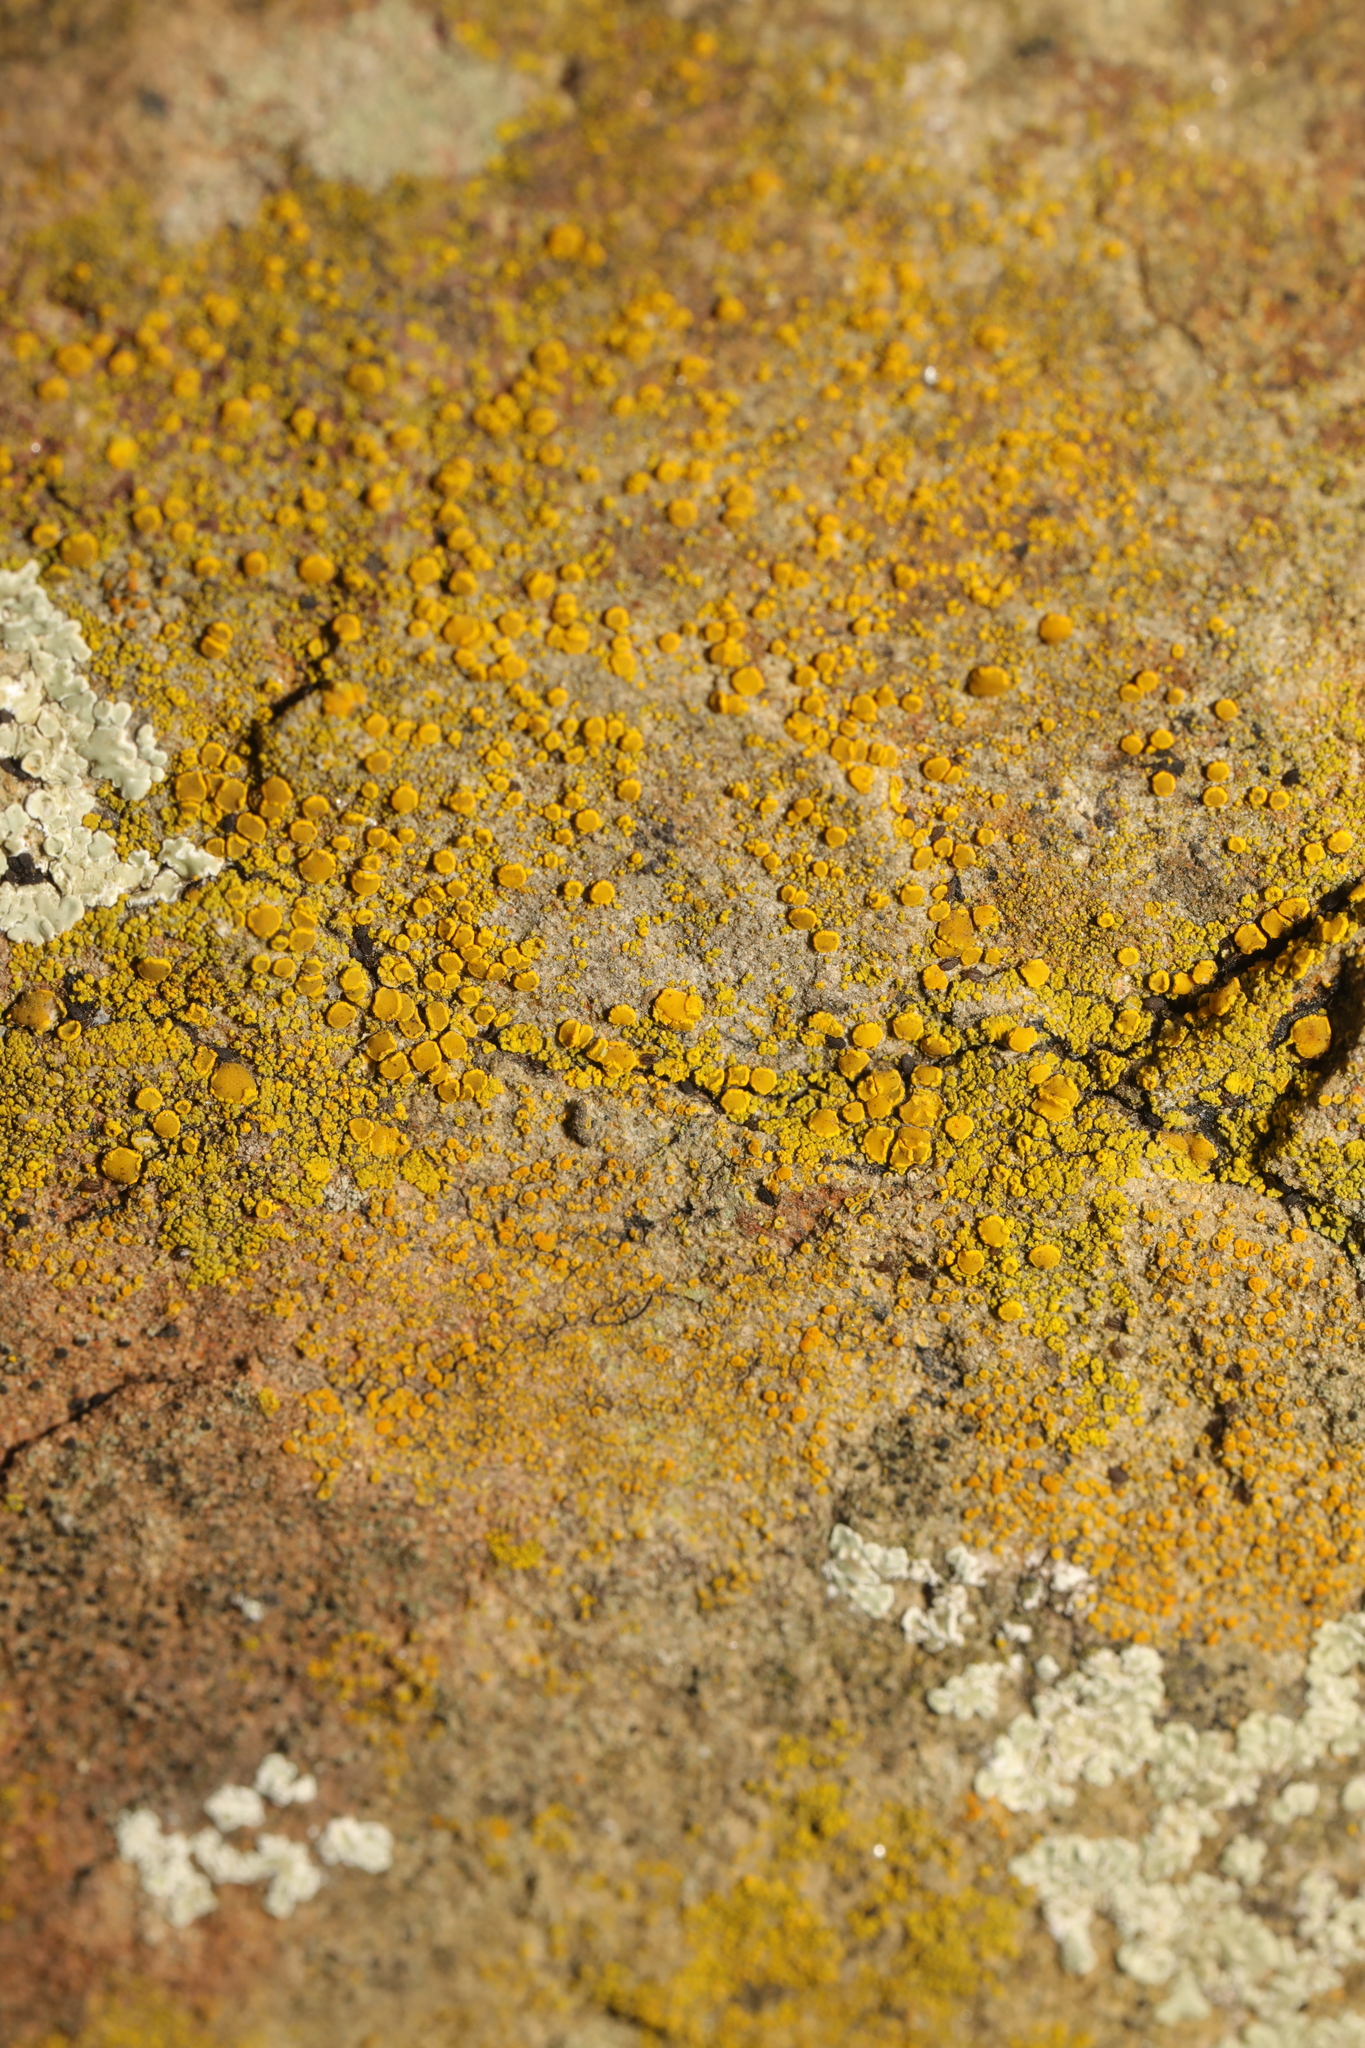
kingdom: Fungi
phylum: Ascomycota
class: Candelariomycetes
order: Candelariales
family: Candelariaceae
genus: Candelariella
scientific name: Candelariella vitellina
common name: Common goldspeck
